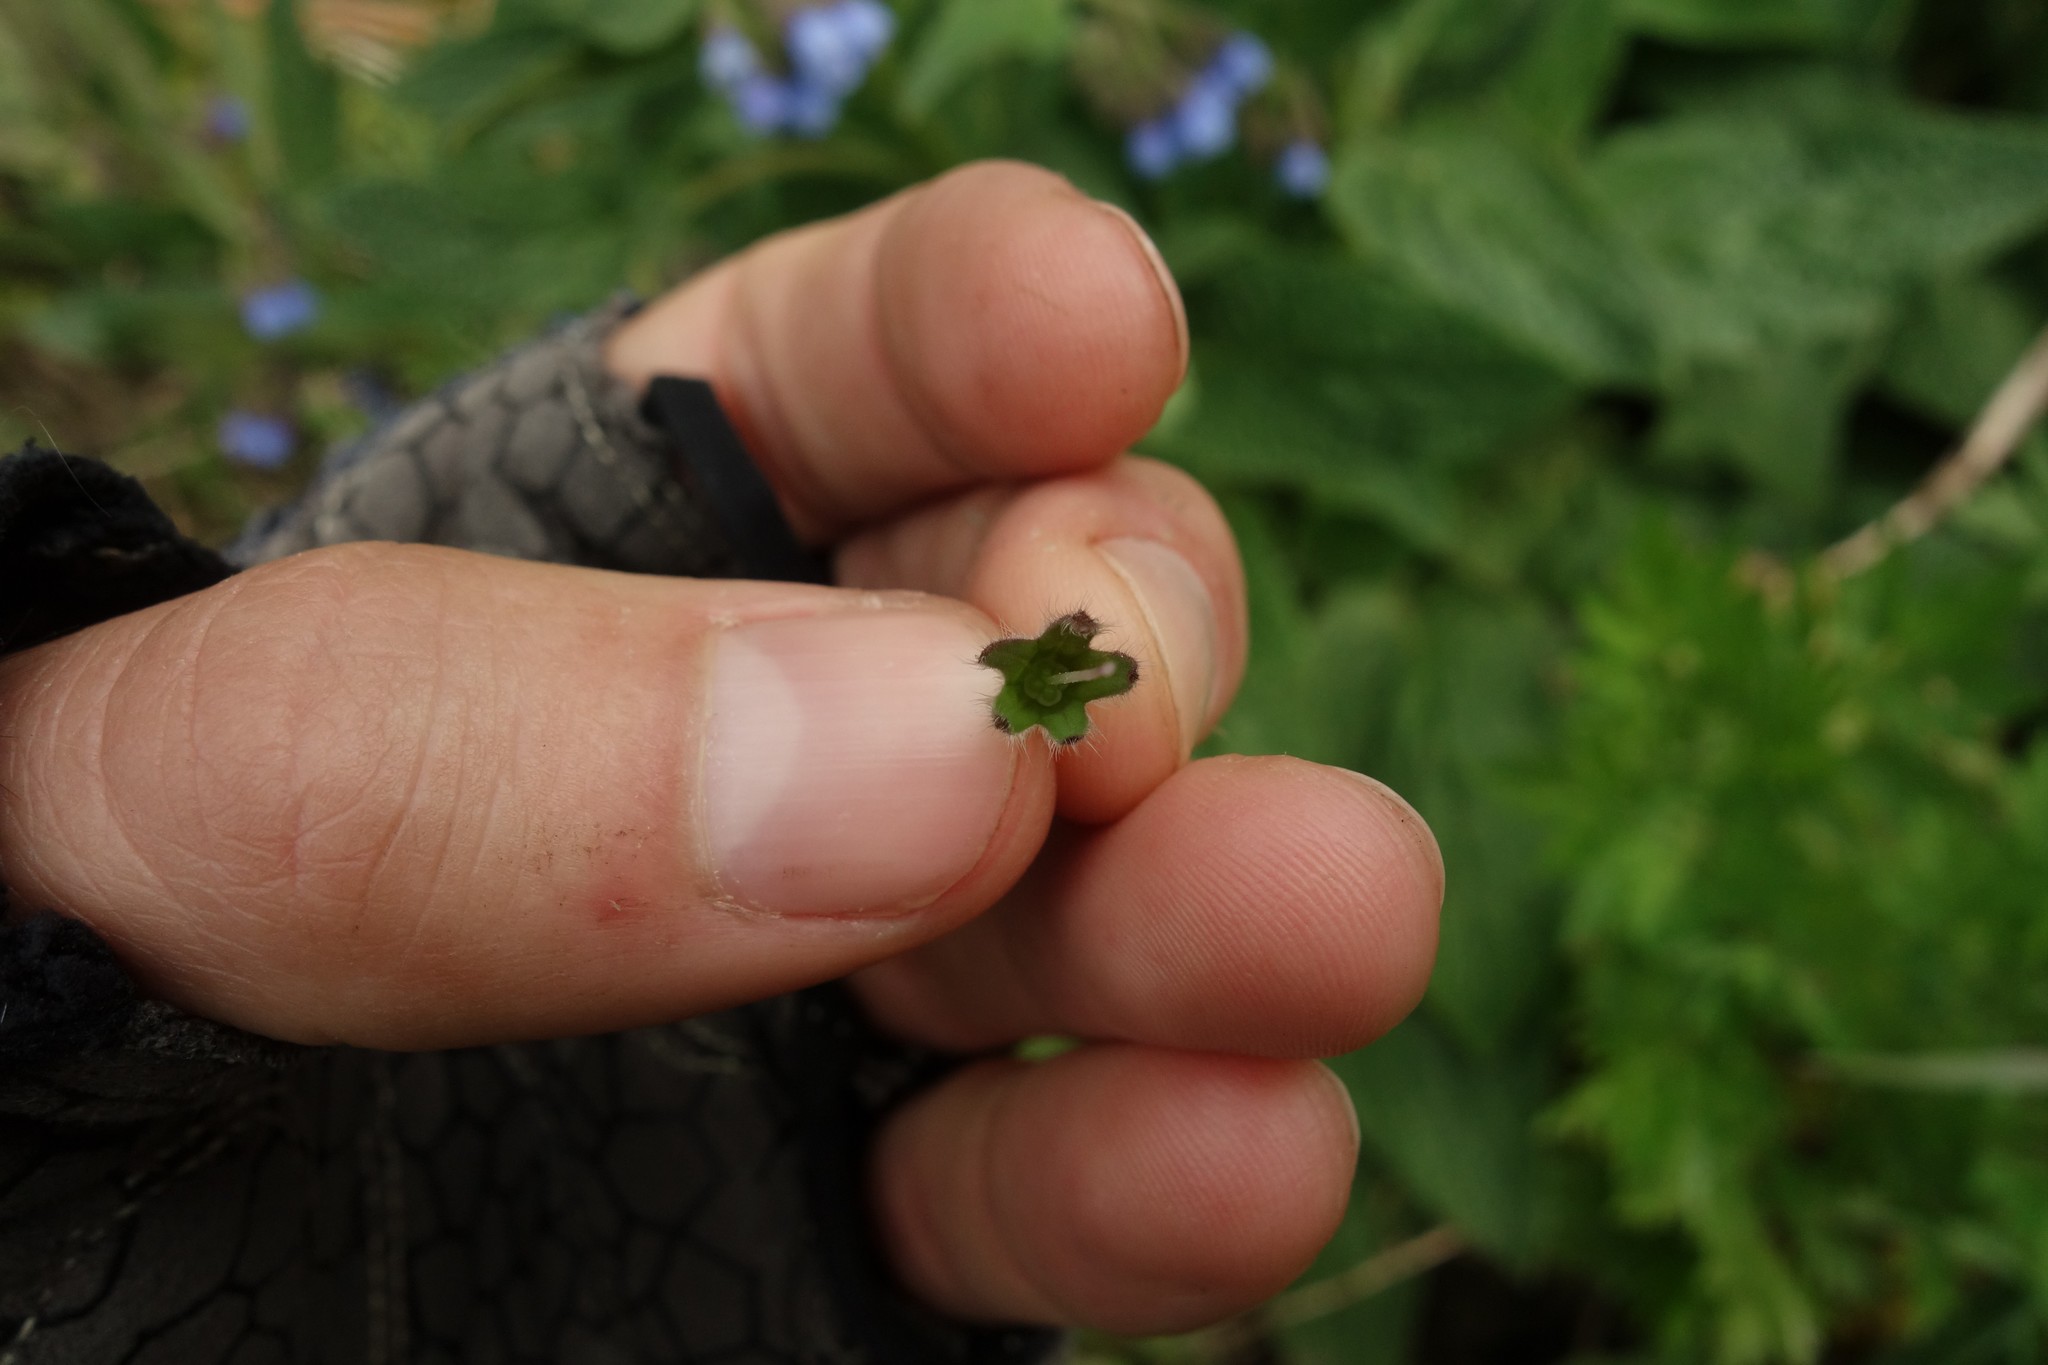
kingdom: Plantae
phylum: Tracheophyta
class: Magnoliopsida
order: Boraginales
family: Boraginaceae
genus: Symphytum
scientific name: Symphytum caucasicum
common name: Caucasian comfrey
